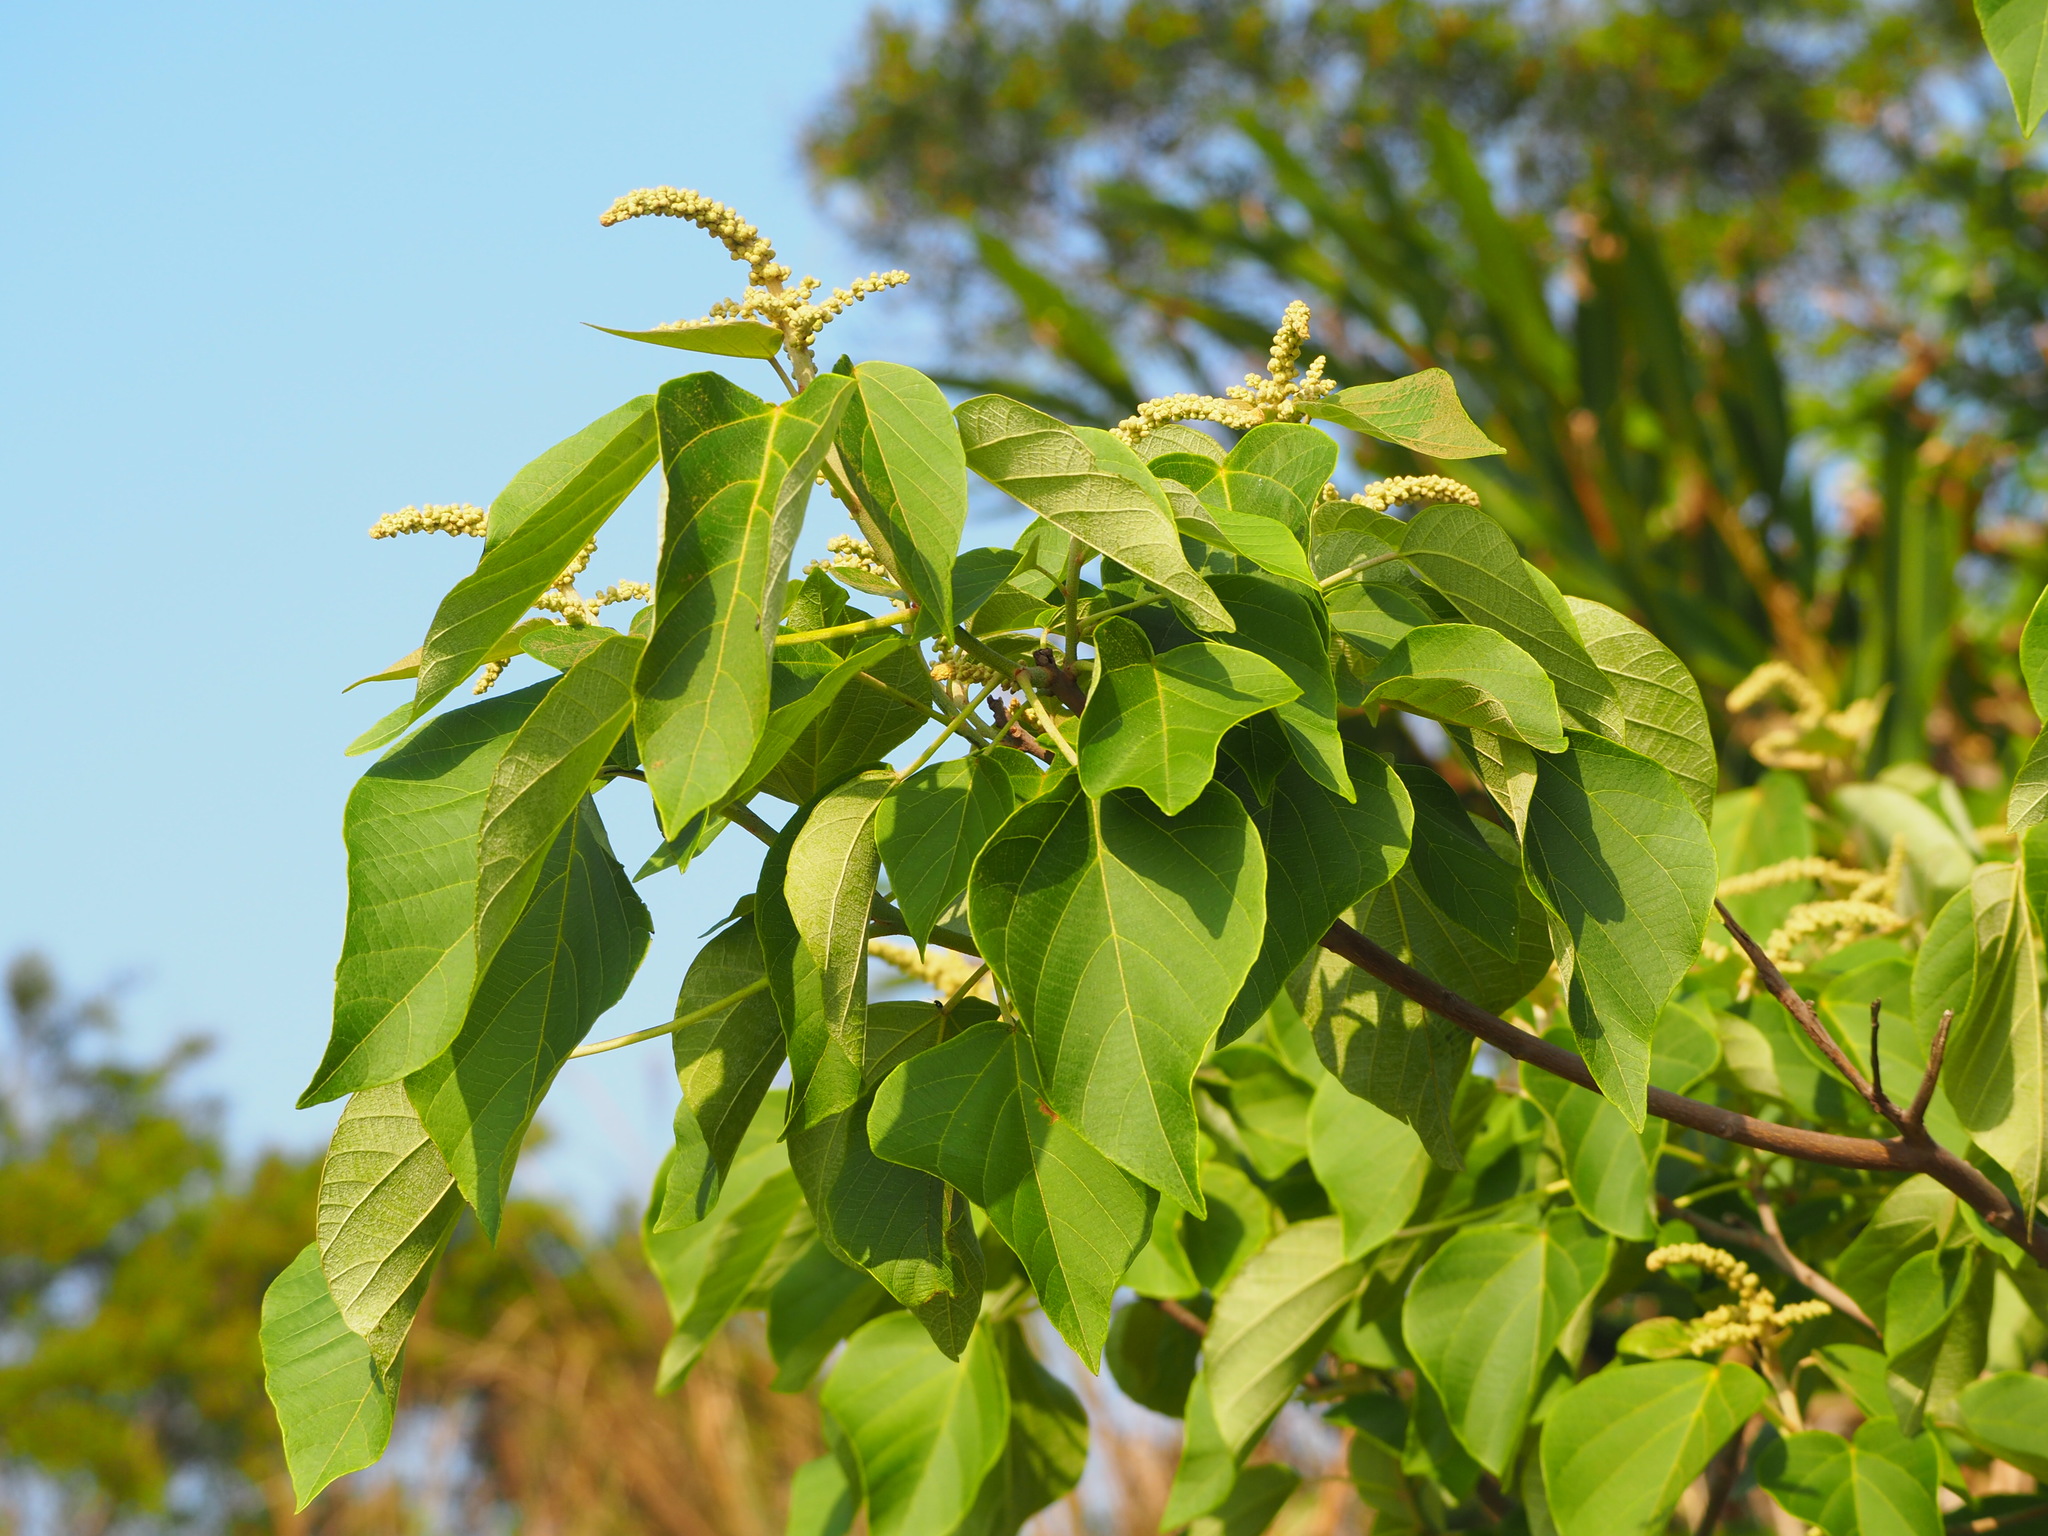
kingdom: Plantae
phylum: Tracheophyta
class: Magnoliopsida
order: Malpighiales
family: Euphorbiaceae
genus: Mallotus
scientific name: Mallotus japonicus
